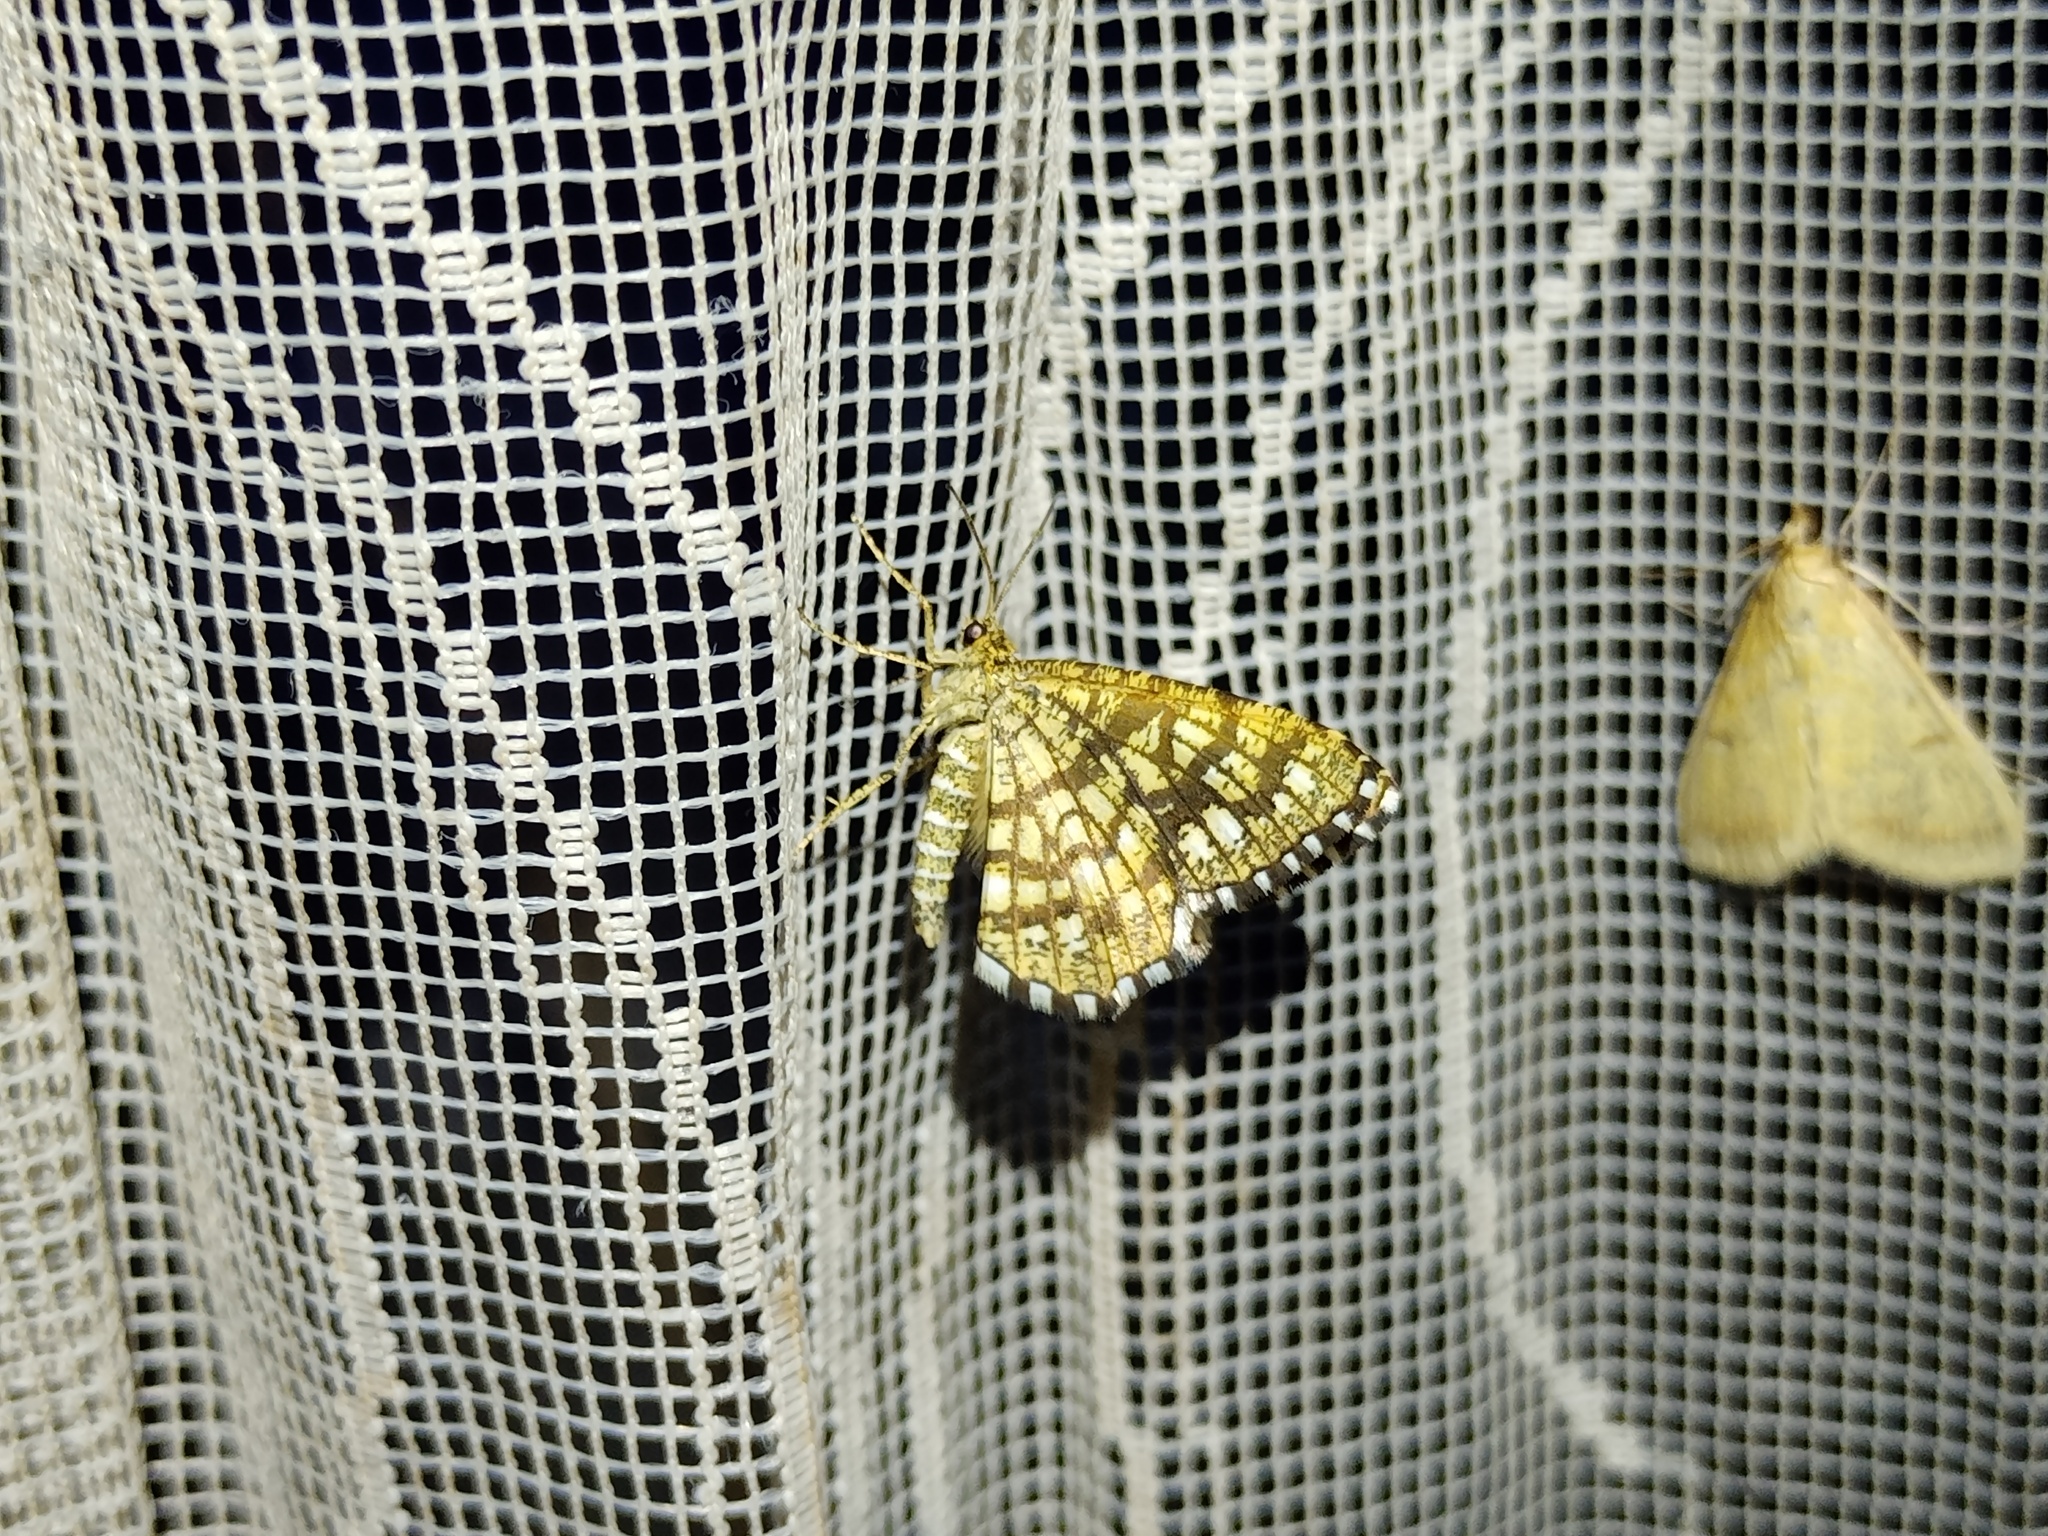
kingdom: Animalia
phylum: Arthropoda
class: Insecta
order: Lepidoptera
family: Geometridae
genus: Chiasmia
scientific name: Chiasmia clathrata
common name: Latticed heath
